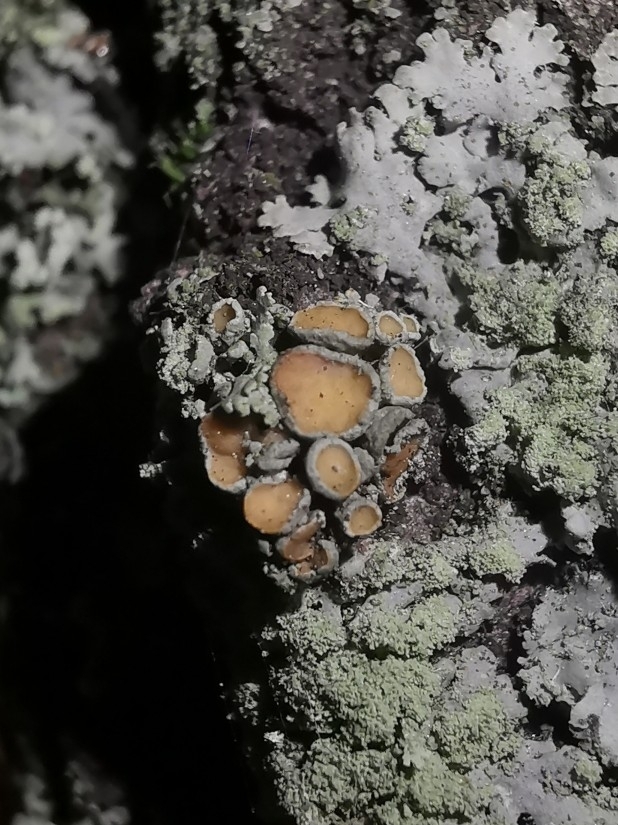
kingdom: Fungi
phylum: Ascomycota
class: Lecanoromycetes
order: Teloschistales
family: Teloschistaceae
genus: Polycauliona
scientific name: Polycauliona polycarpa
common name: Pin-cushion sunburst lichen
